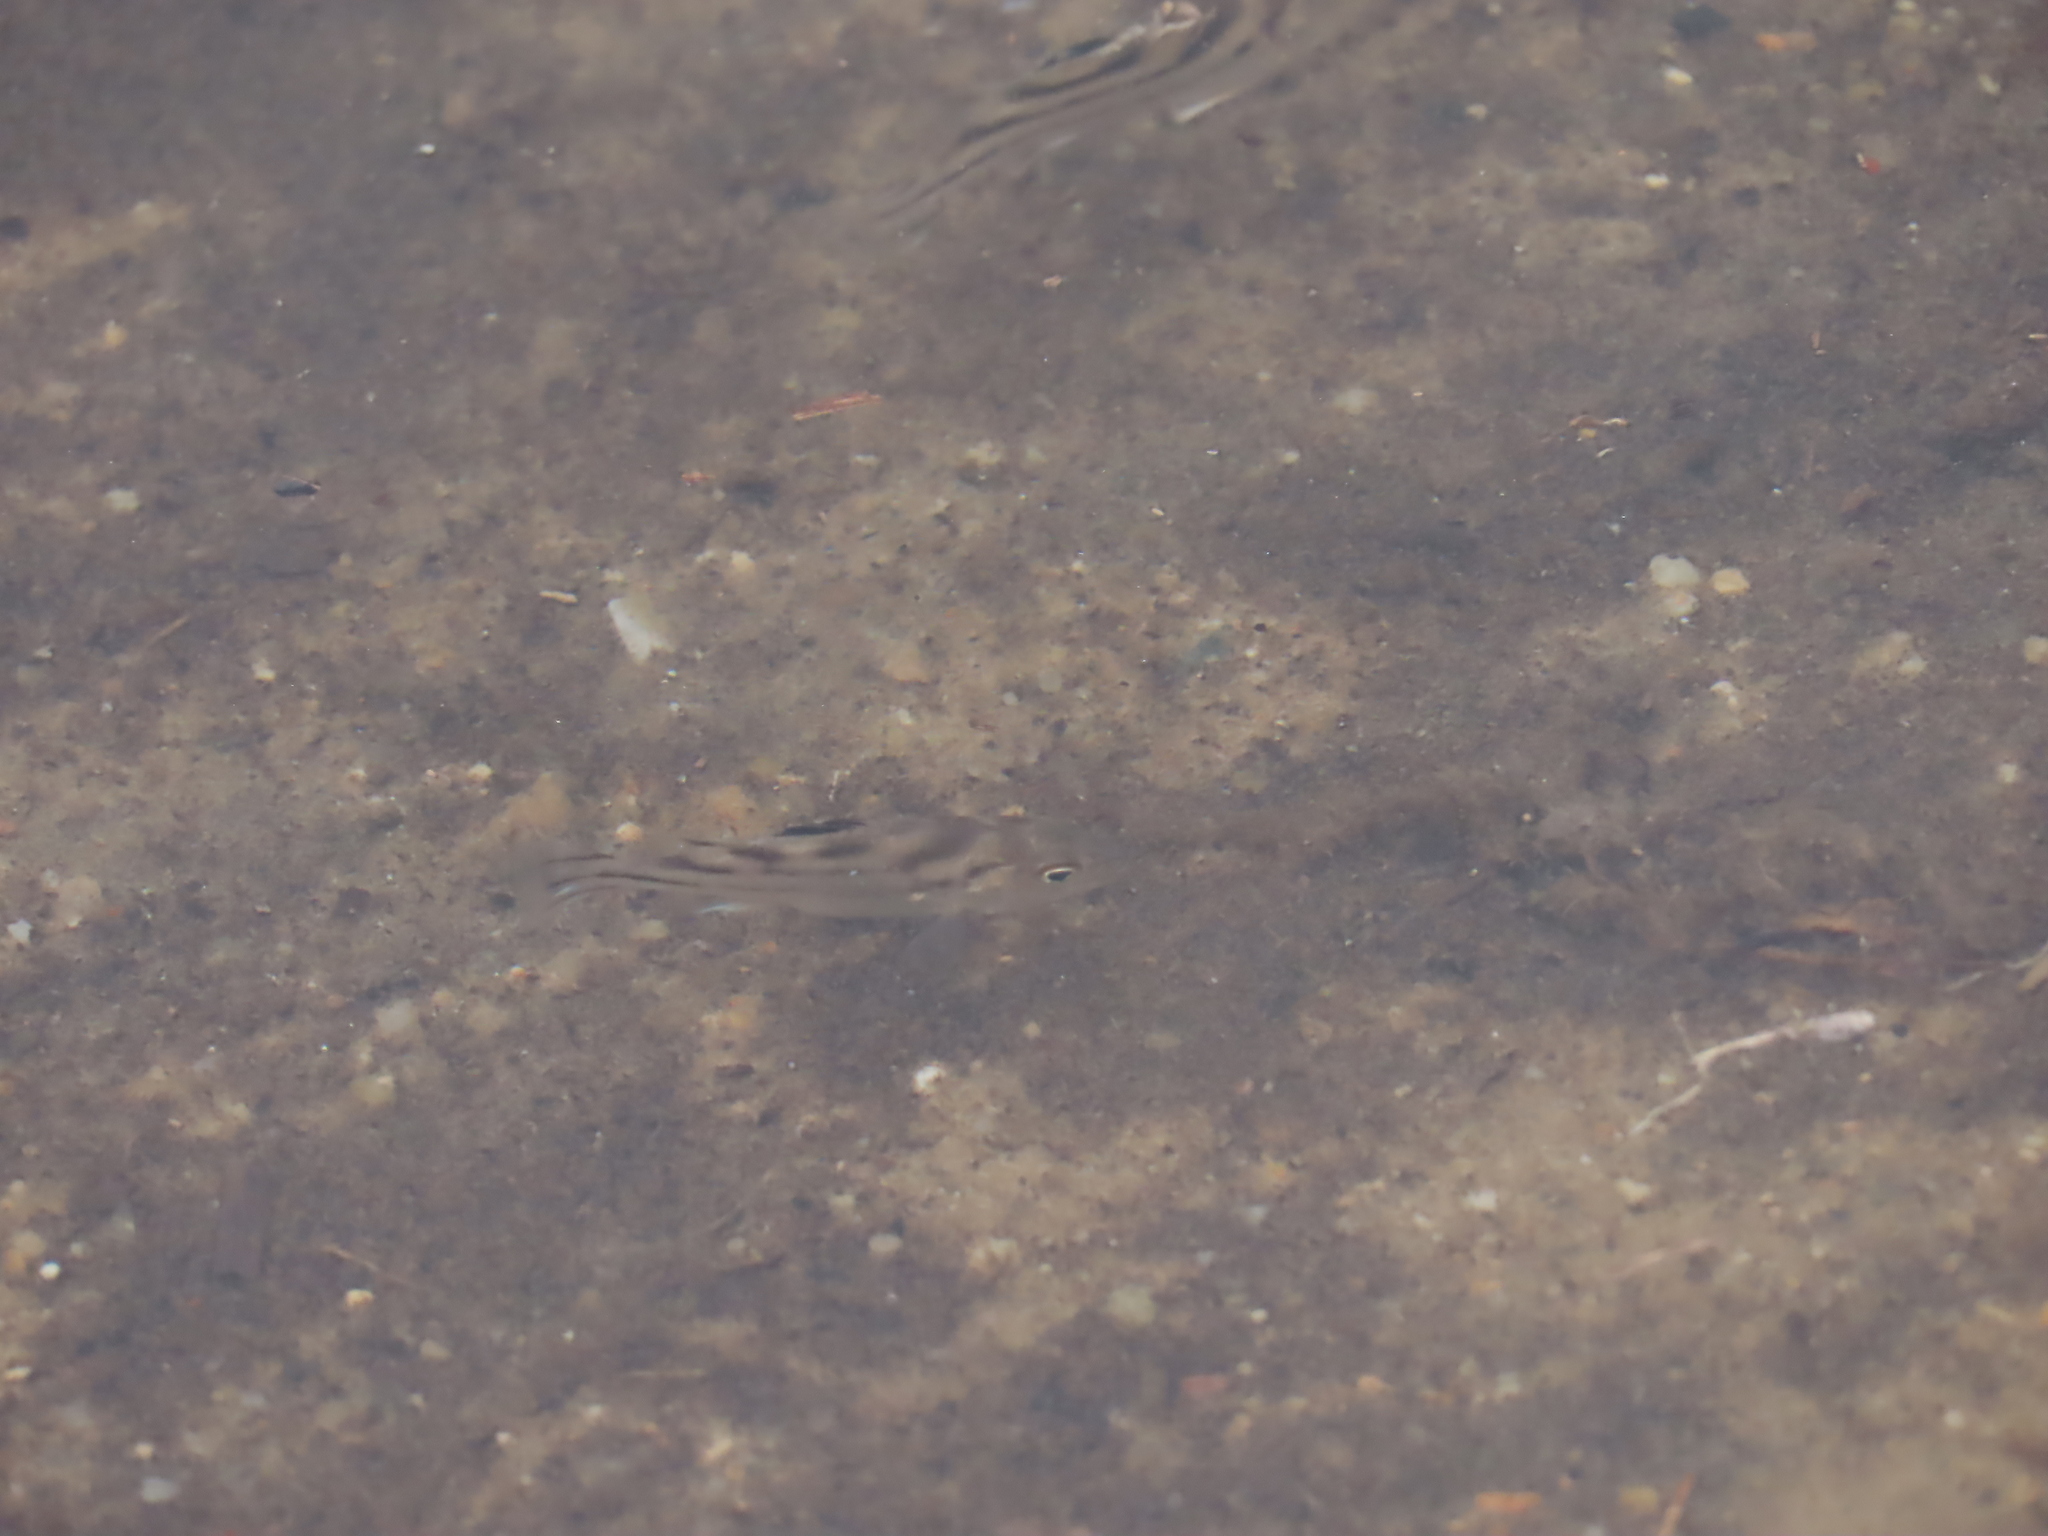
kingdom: Animalia
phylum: Chordata
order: Perciformes
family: Terapontidae
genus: Terapon
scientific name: Terapon jarbua
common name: Jarbua terapon
